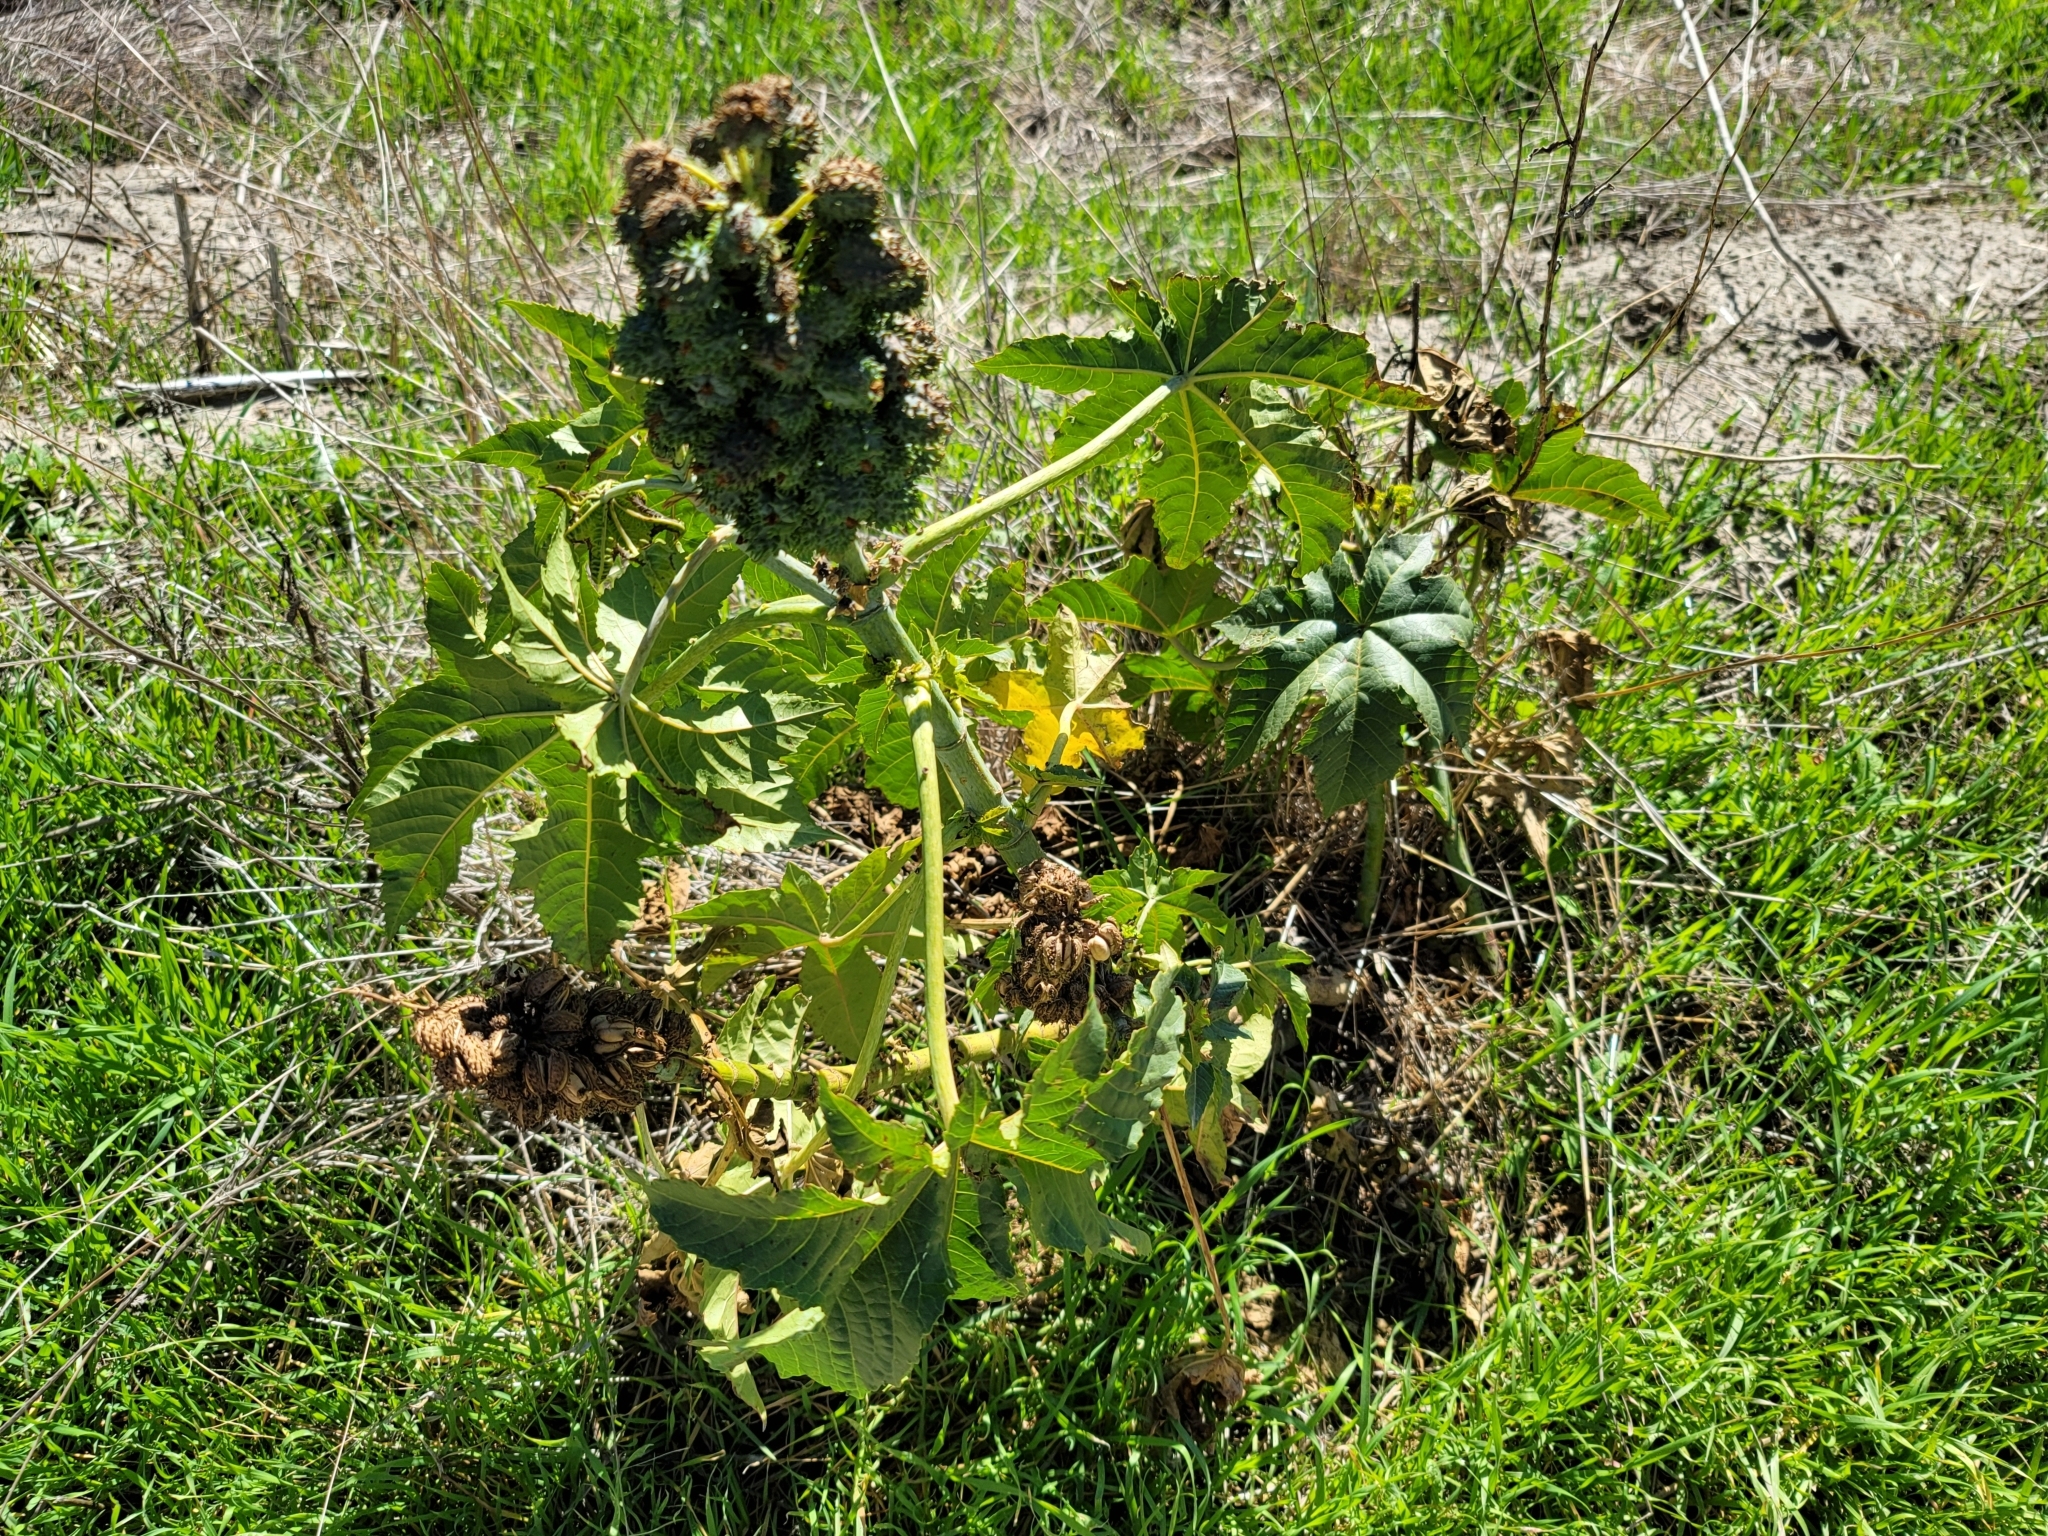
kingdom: Plantae
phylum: Tracheophyta
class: Magnoliopsida
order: Malpighiales
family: Euphorbiaceae
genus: Ricinus
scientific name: Ricinus communis
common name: Castor-oil-plant
